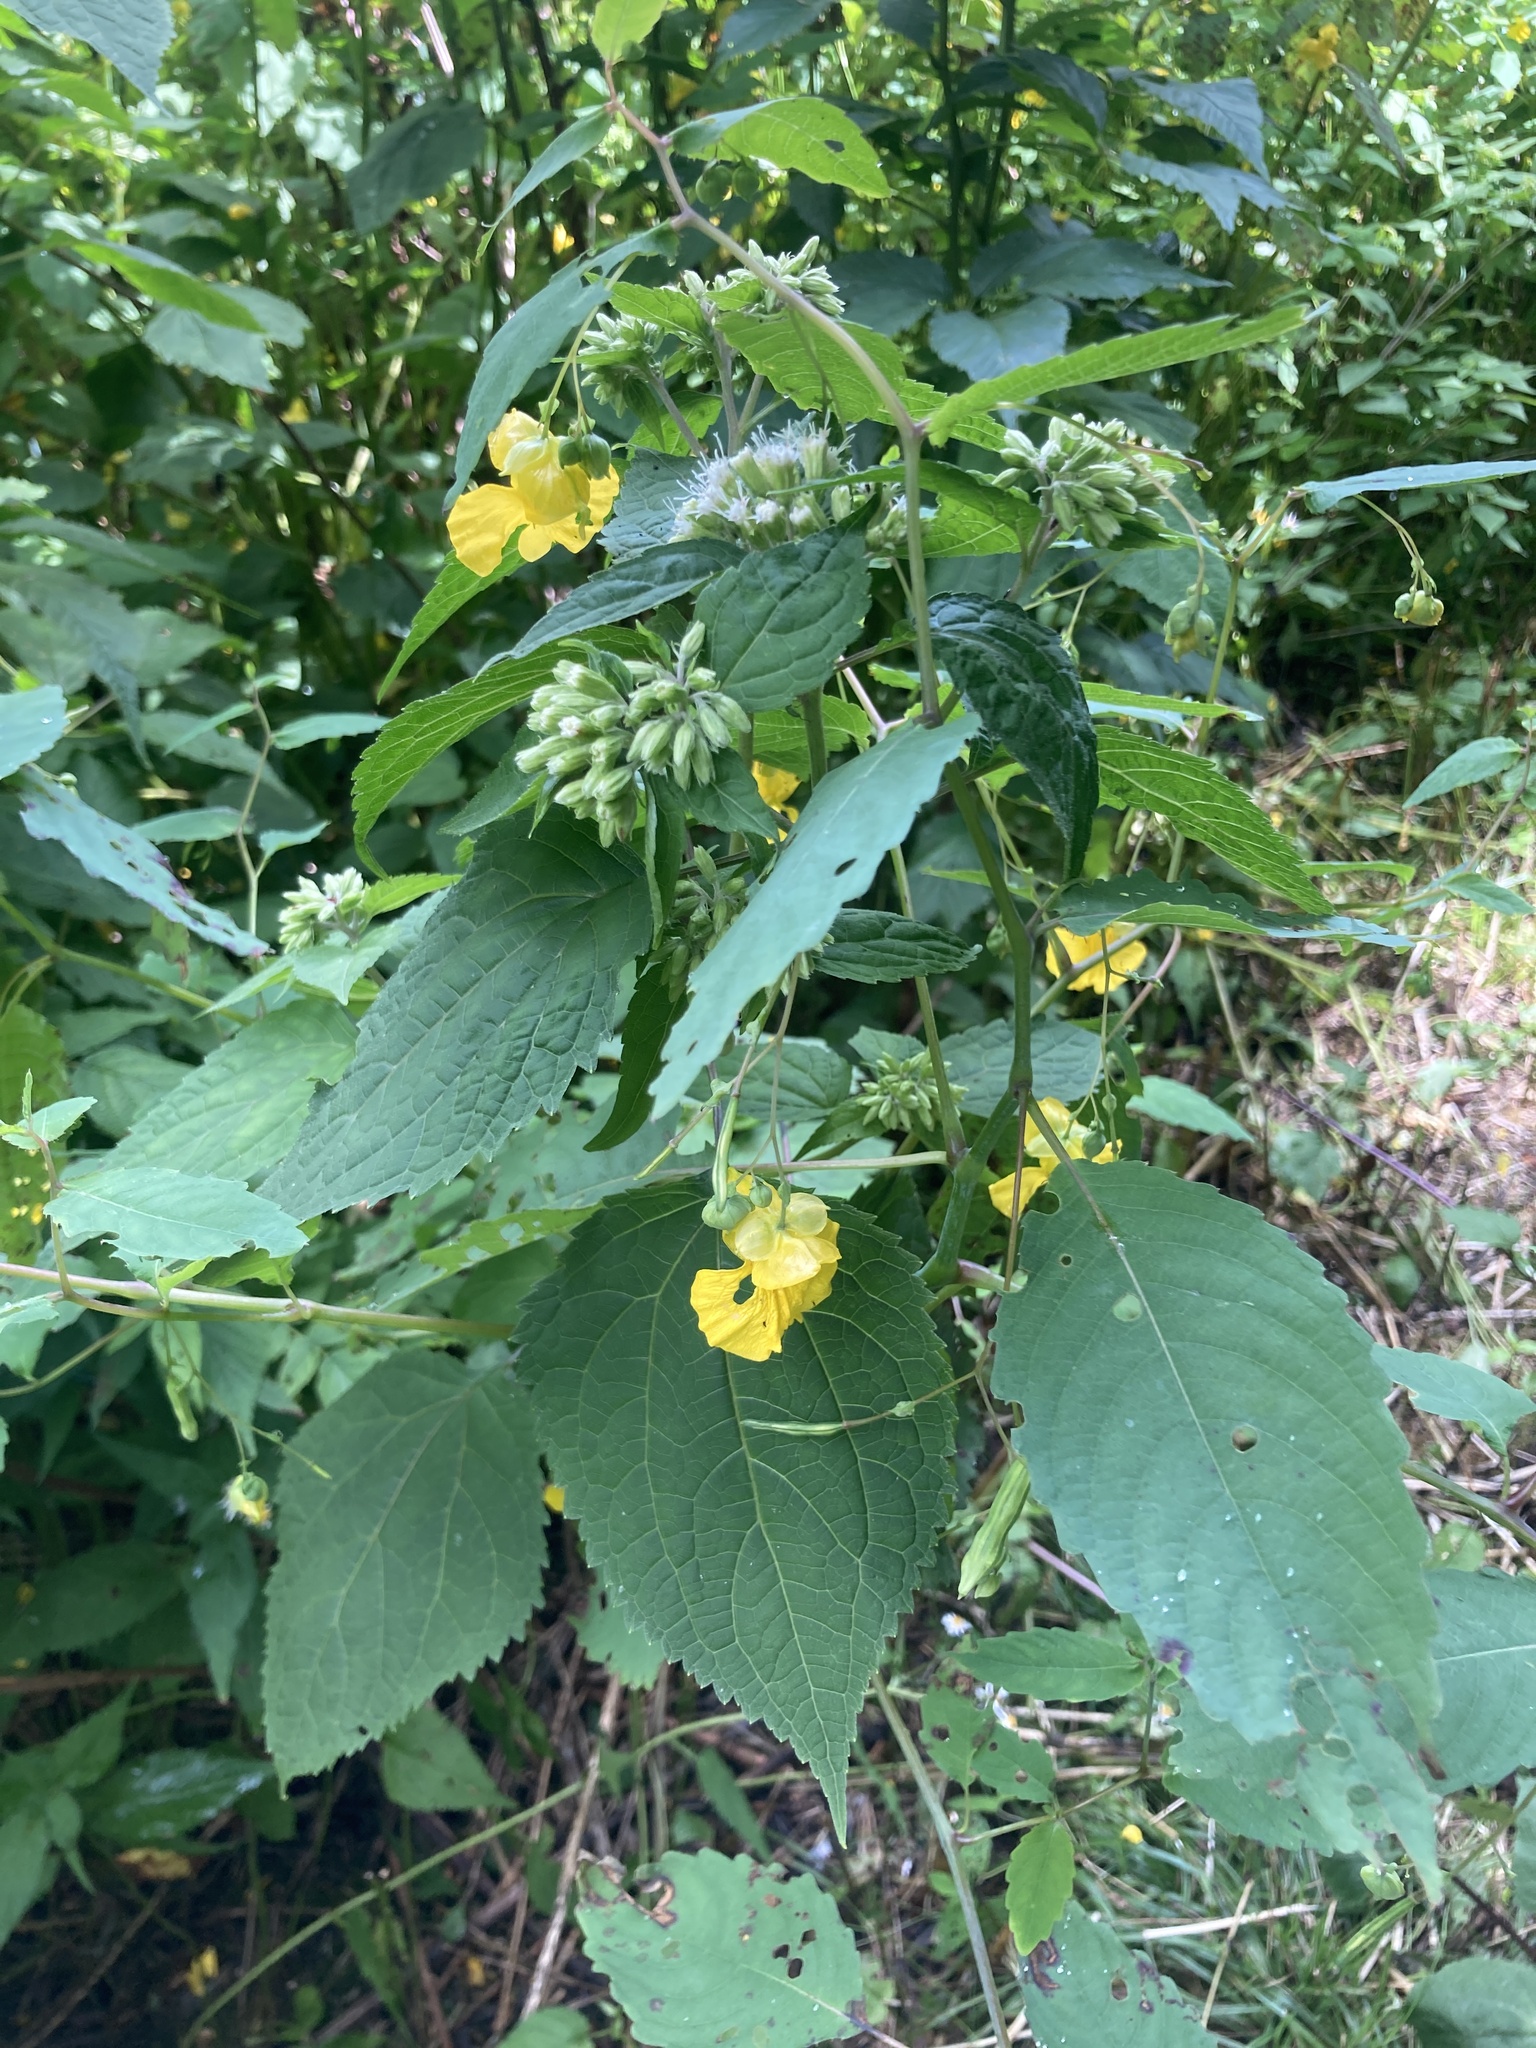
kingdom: Plantae
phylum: Tracheophyta
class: Magnoliopsida
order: Ericales
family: Balsaminaceae
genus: Impatiens
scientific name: Impatiens pallida
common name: Pale snapweed
